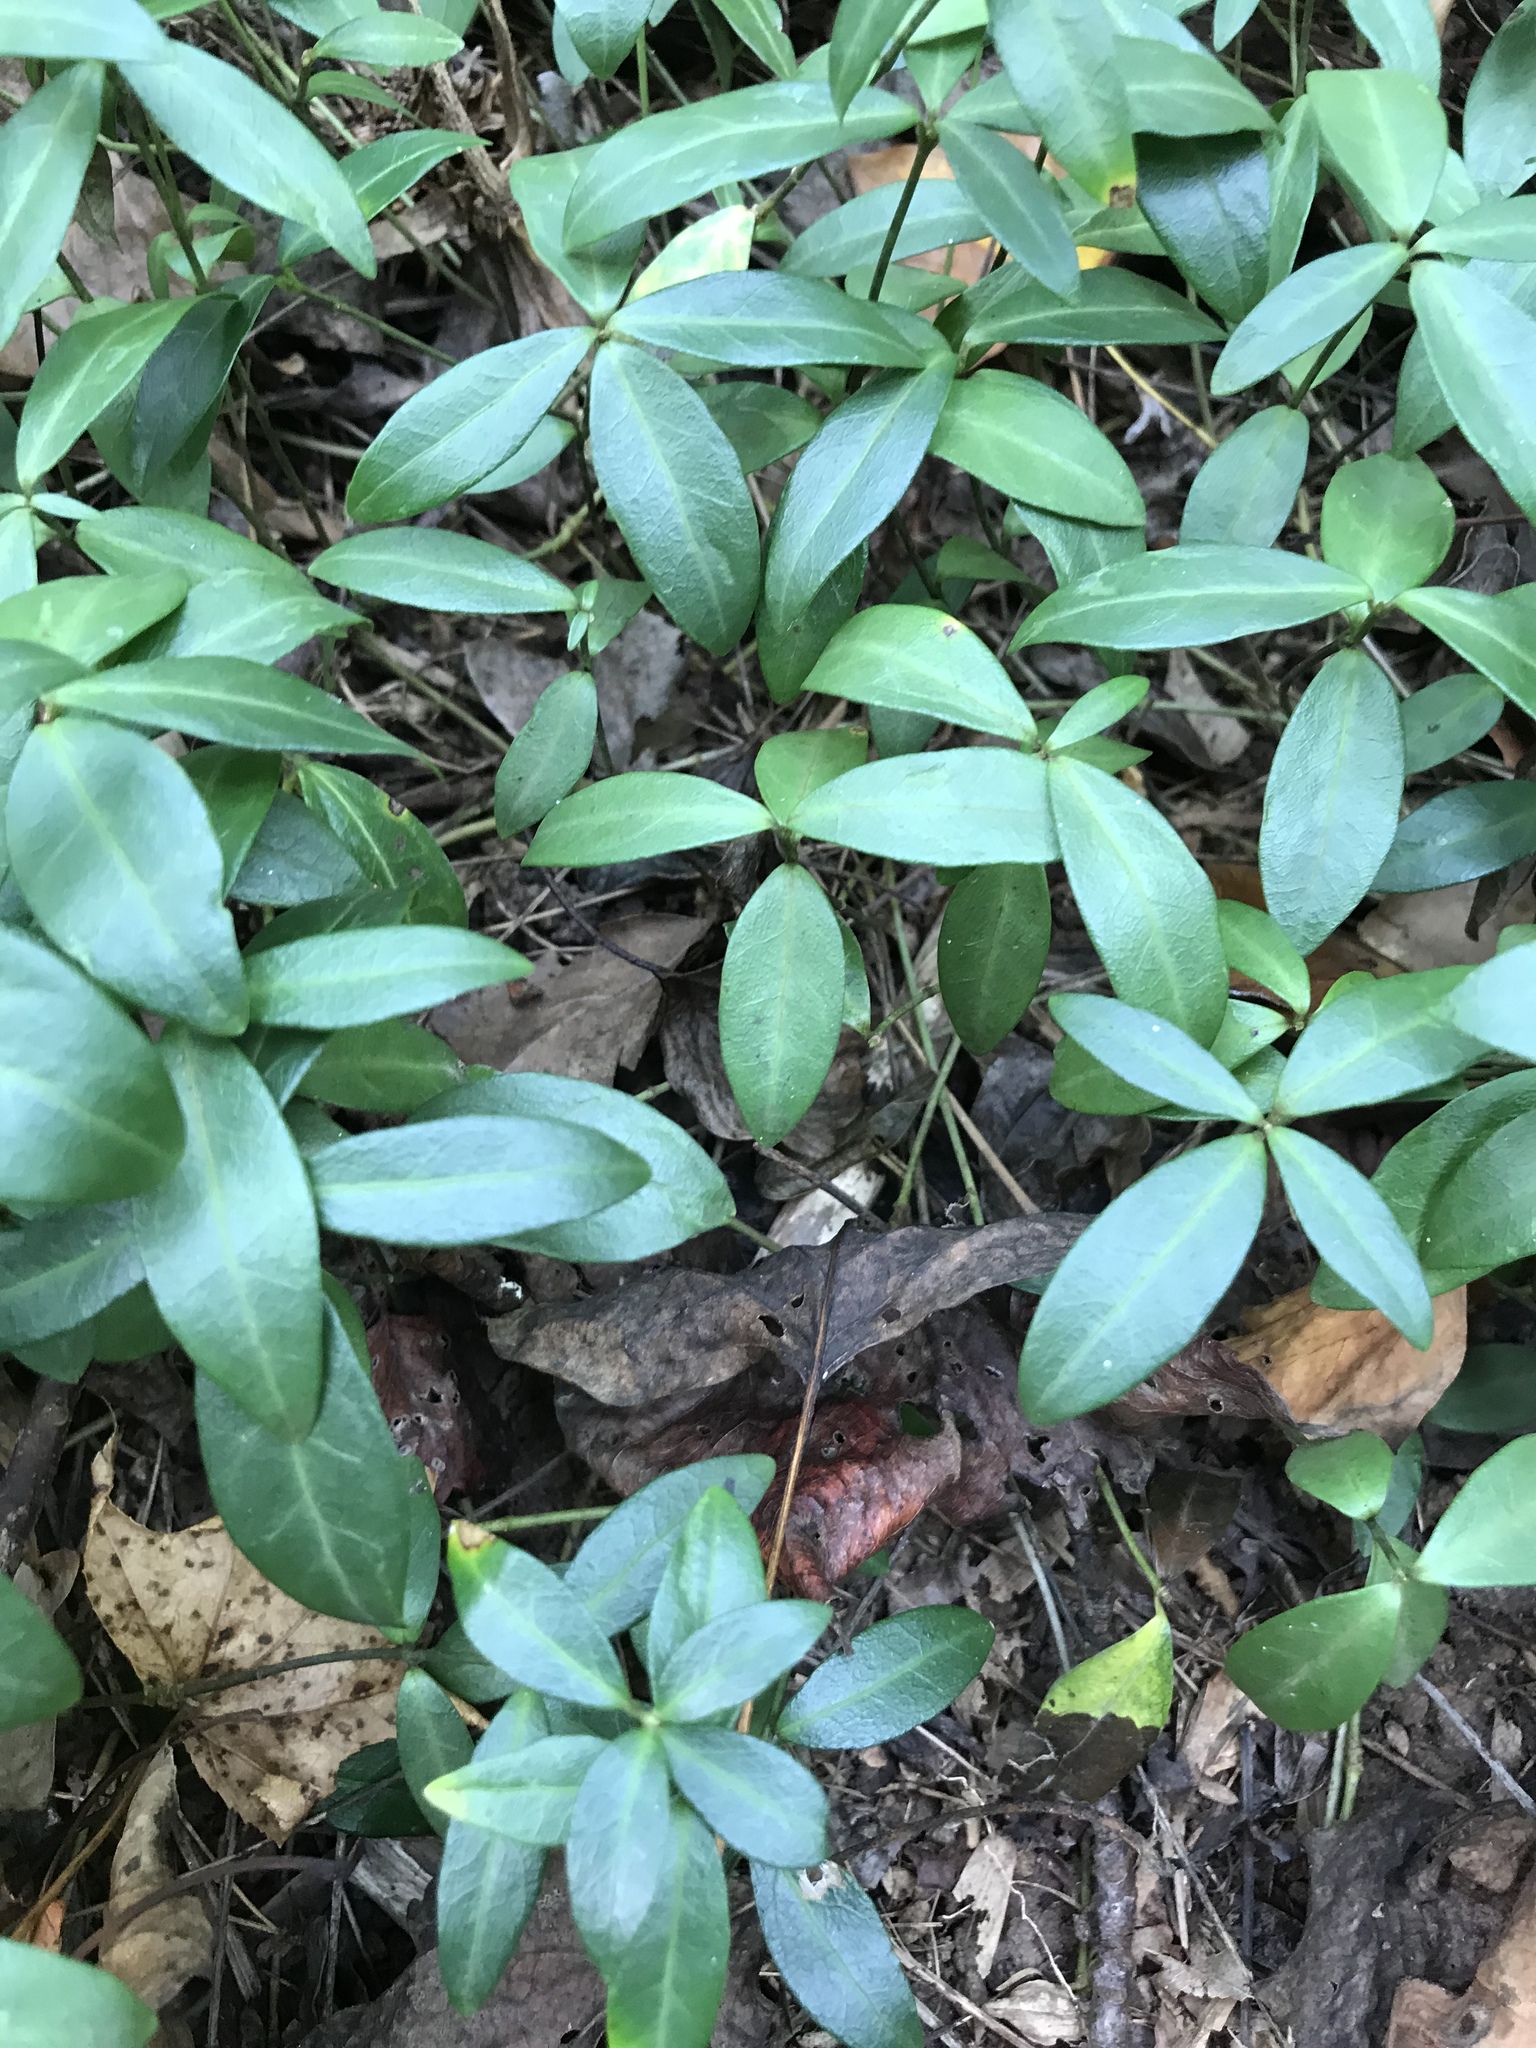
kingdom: Plantae
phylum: Tracheophyta
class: Magnoliopsida
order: Gentianales
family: Apocynaceae
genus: Vinca
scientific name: Vinca minor
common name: Lesser periwinkle
